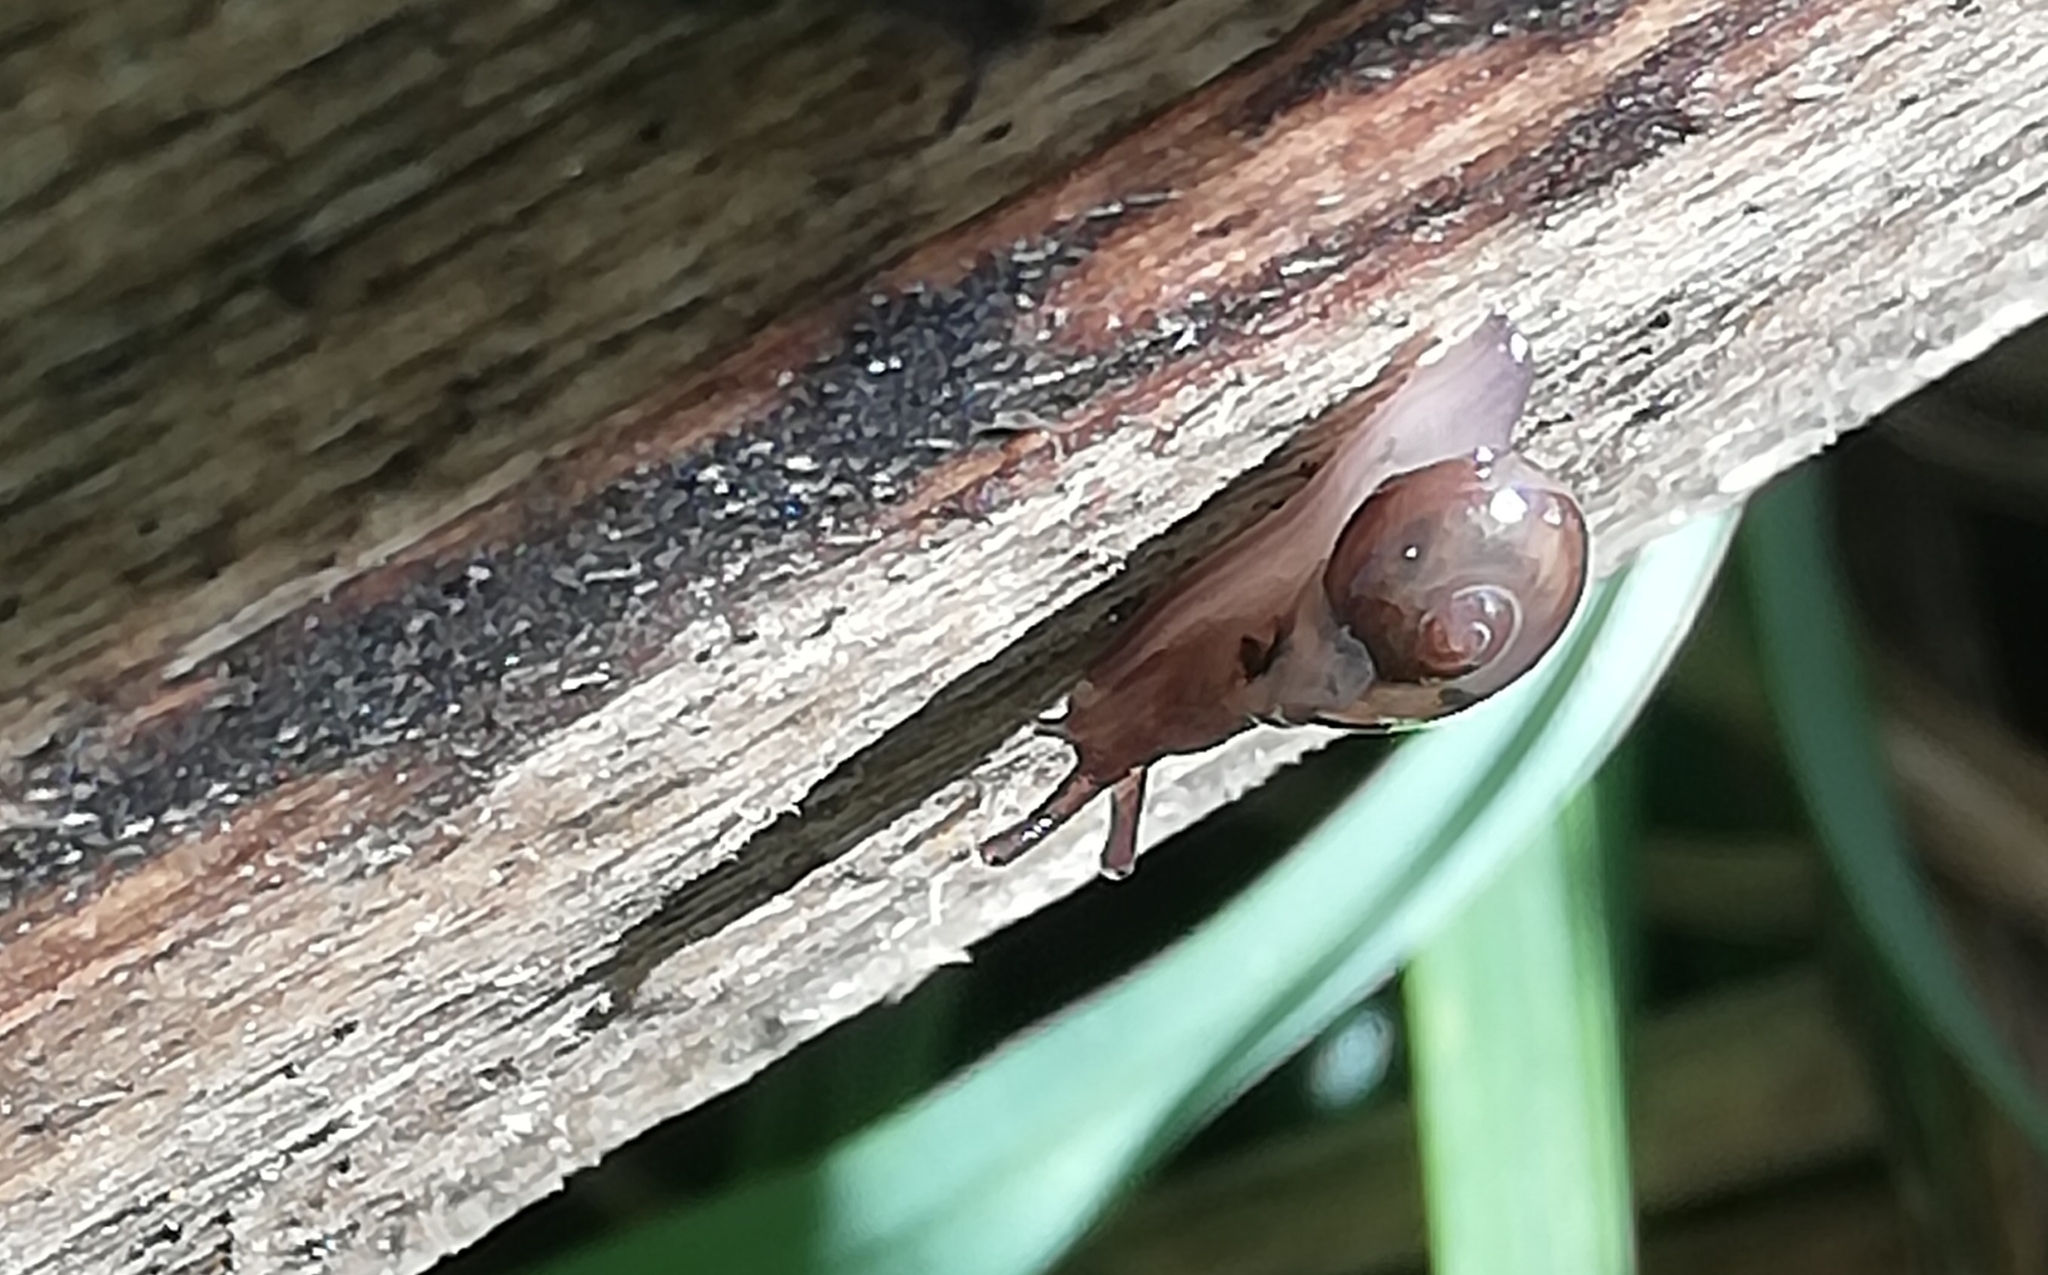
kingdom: Animalia
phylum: Mollusca
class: Gastropoda
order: Stylommatophora
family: Vitrinidae
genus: Vitrina
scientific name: Vitrina pellucida
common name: Pellucid glass snail
